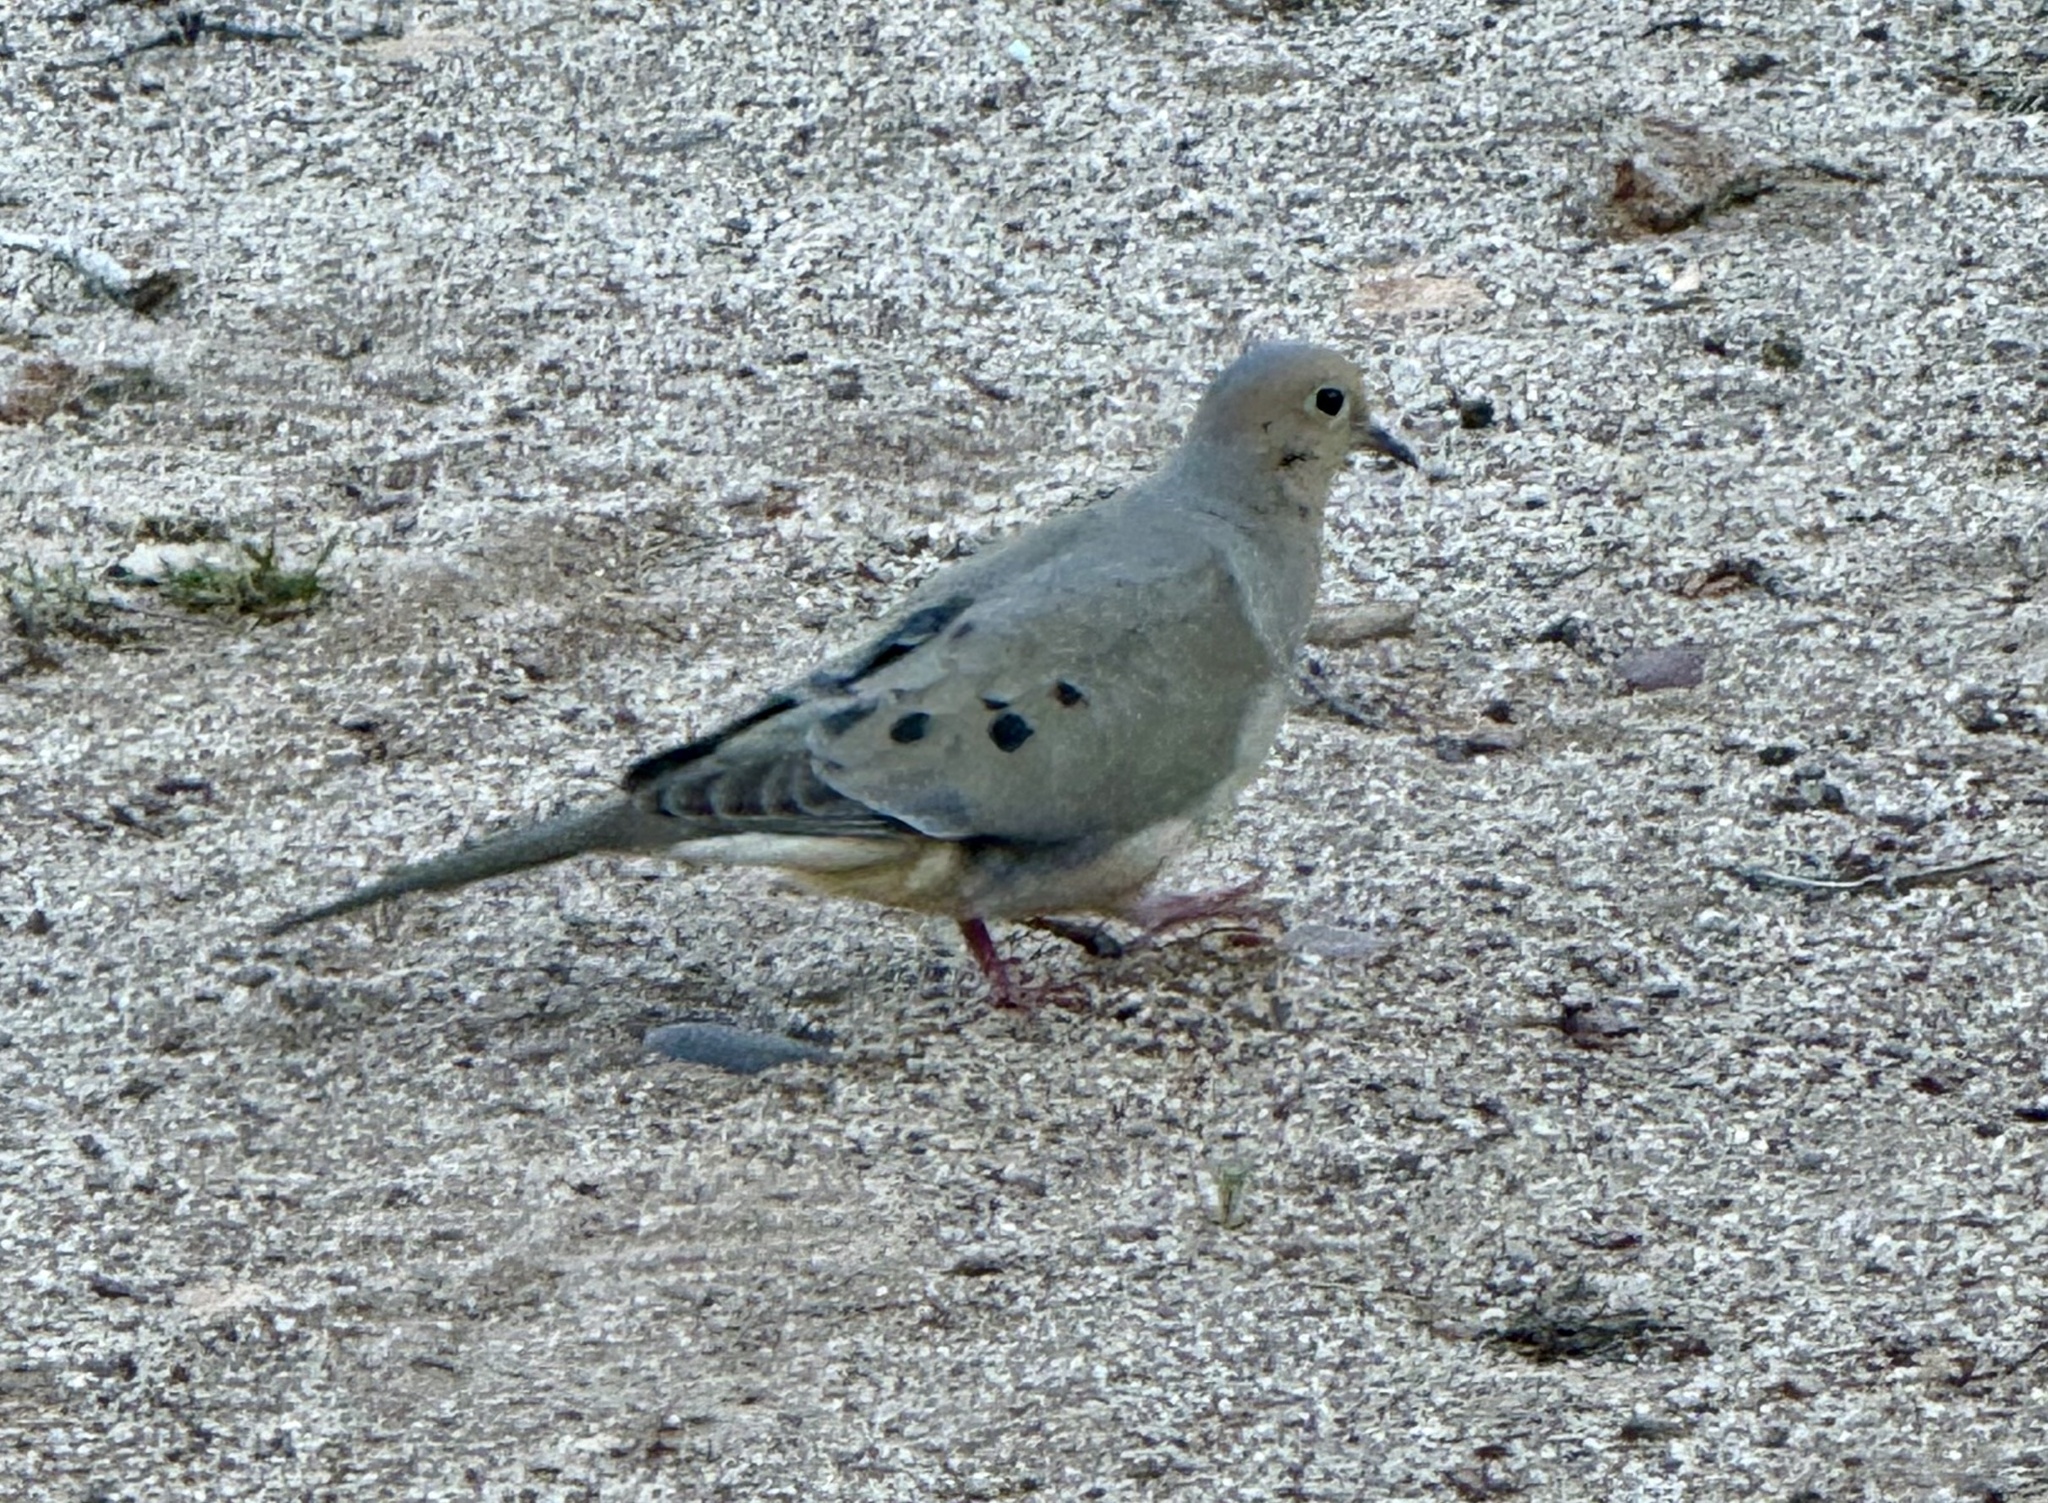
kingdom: Animalia
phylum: Chordata
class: Aves
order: Columbiformes
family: Columbidae
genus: Zenaida
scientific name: Zenaida macroura
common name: Mourning dove
